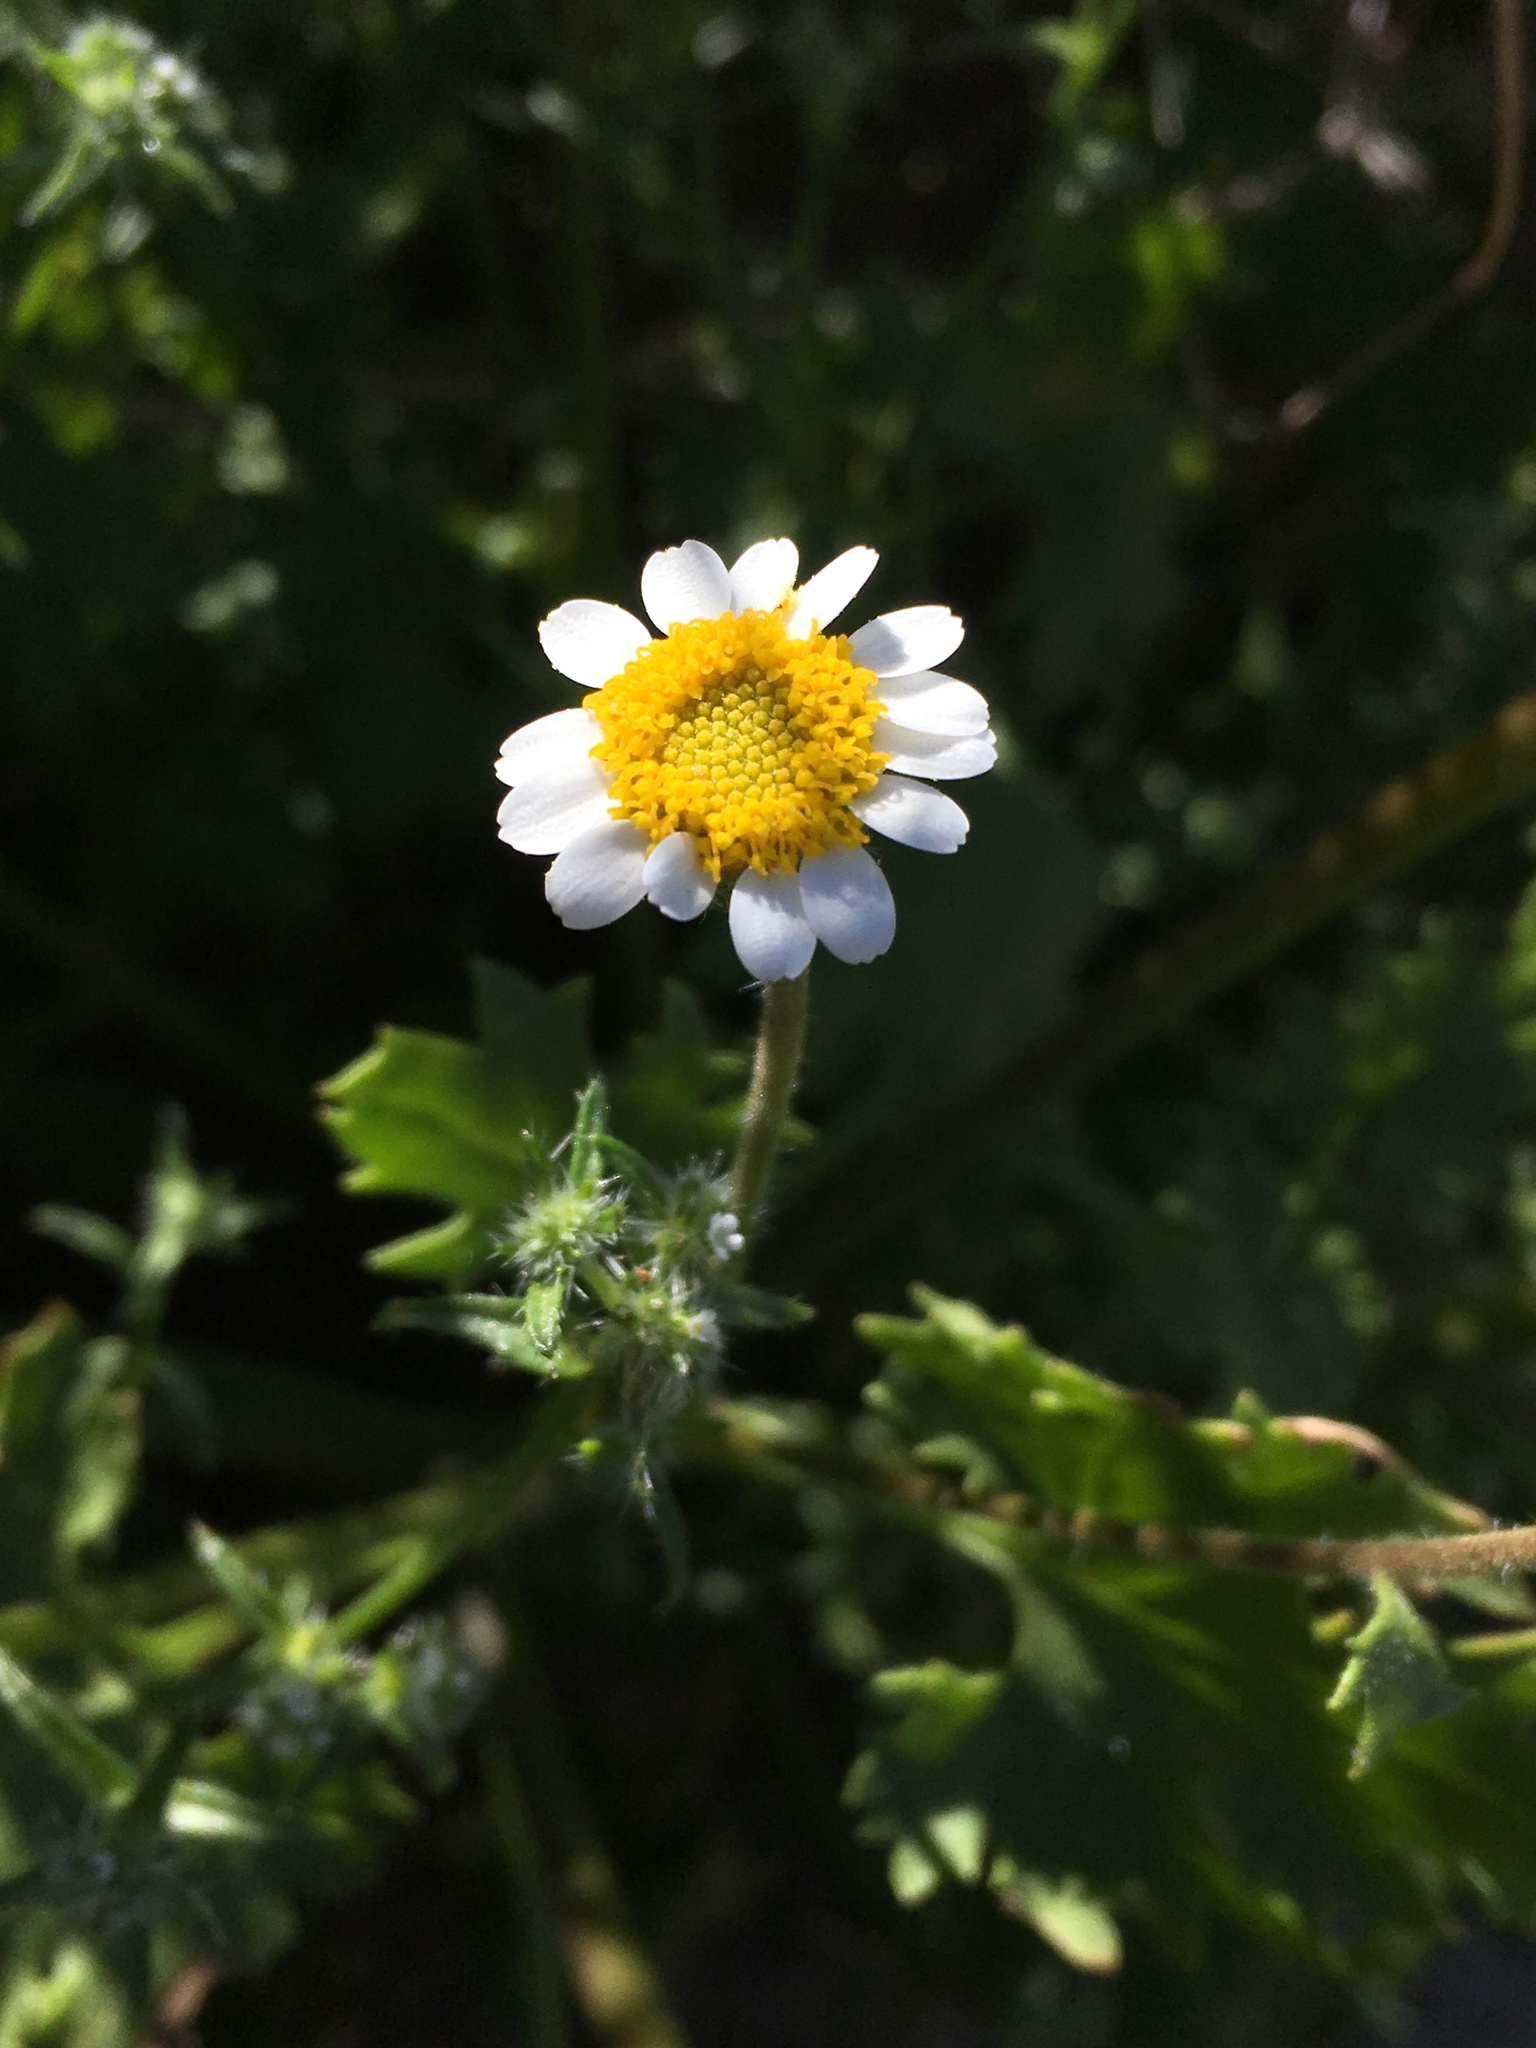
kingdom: Plantae
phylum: Tracheophyta
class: Magnoliopsida
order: Asterales
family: Asteraceae
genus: Laphamia
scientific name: Laphamia emoryi
